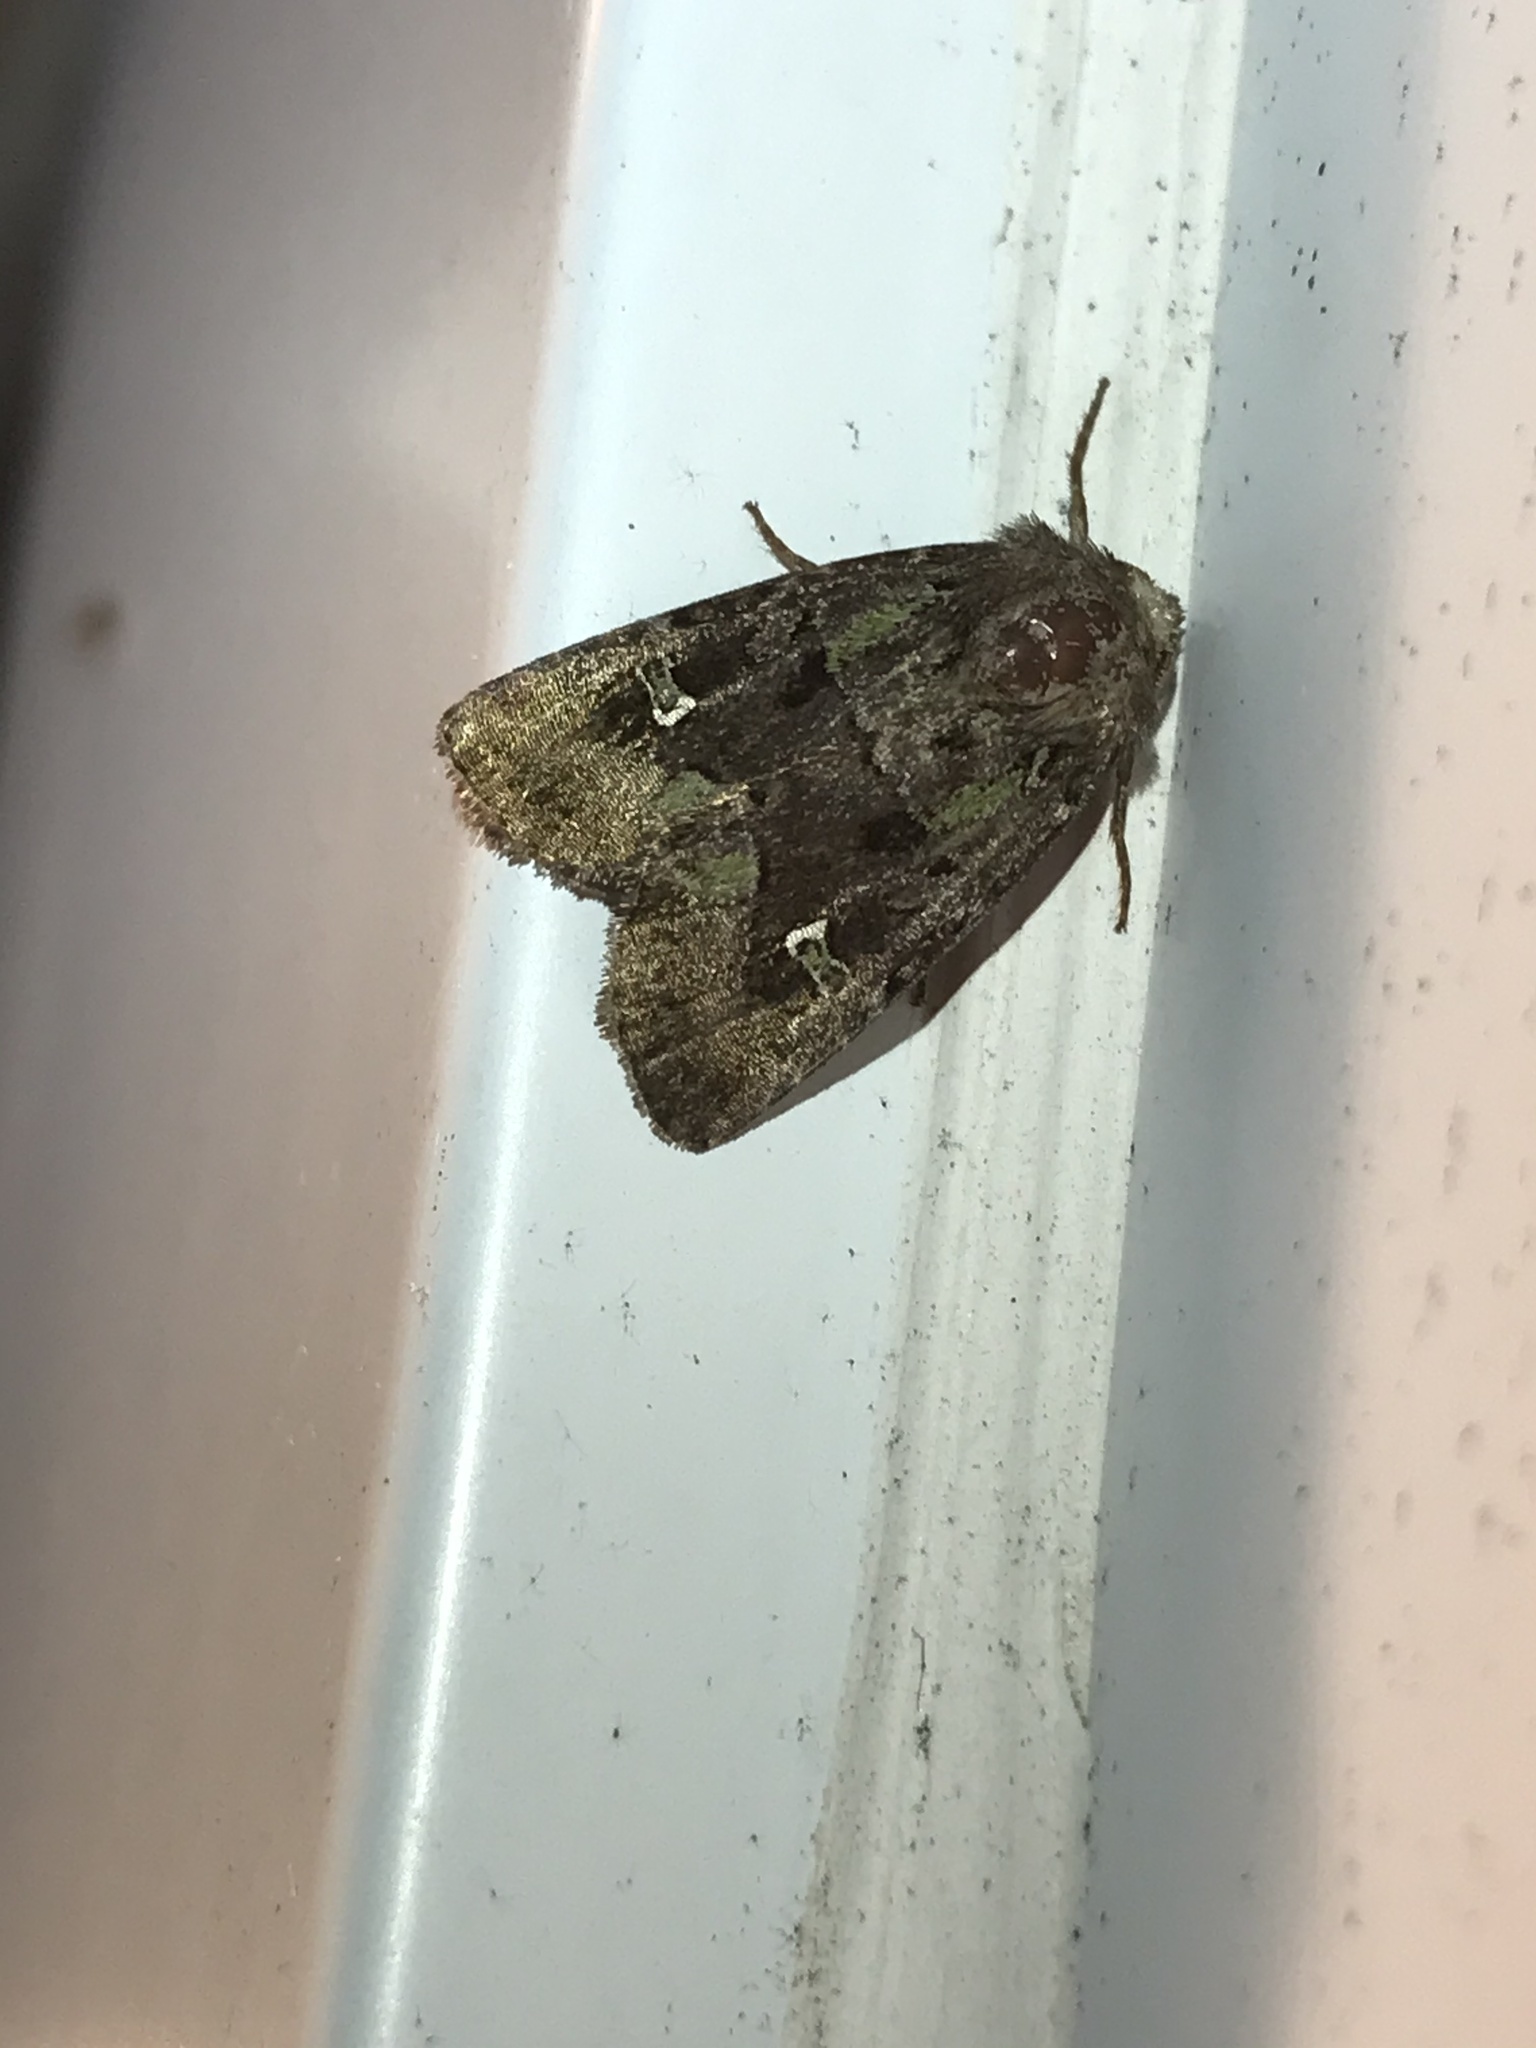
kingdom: Animalia
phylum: Arthropoda
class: Insecta
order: Lepidoptera
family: Noctuidae
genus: Lacinipolia
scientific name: Lacinipolia renigera
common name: Kidney-spotted minor
